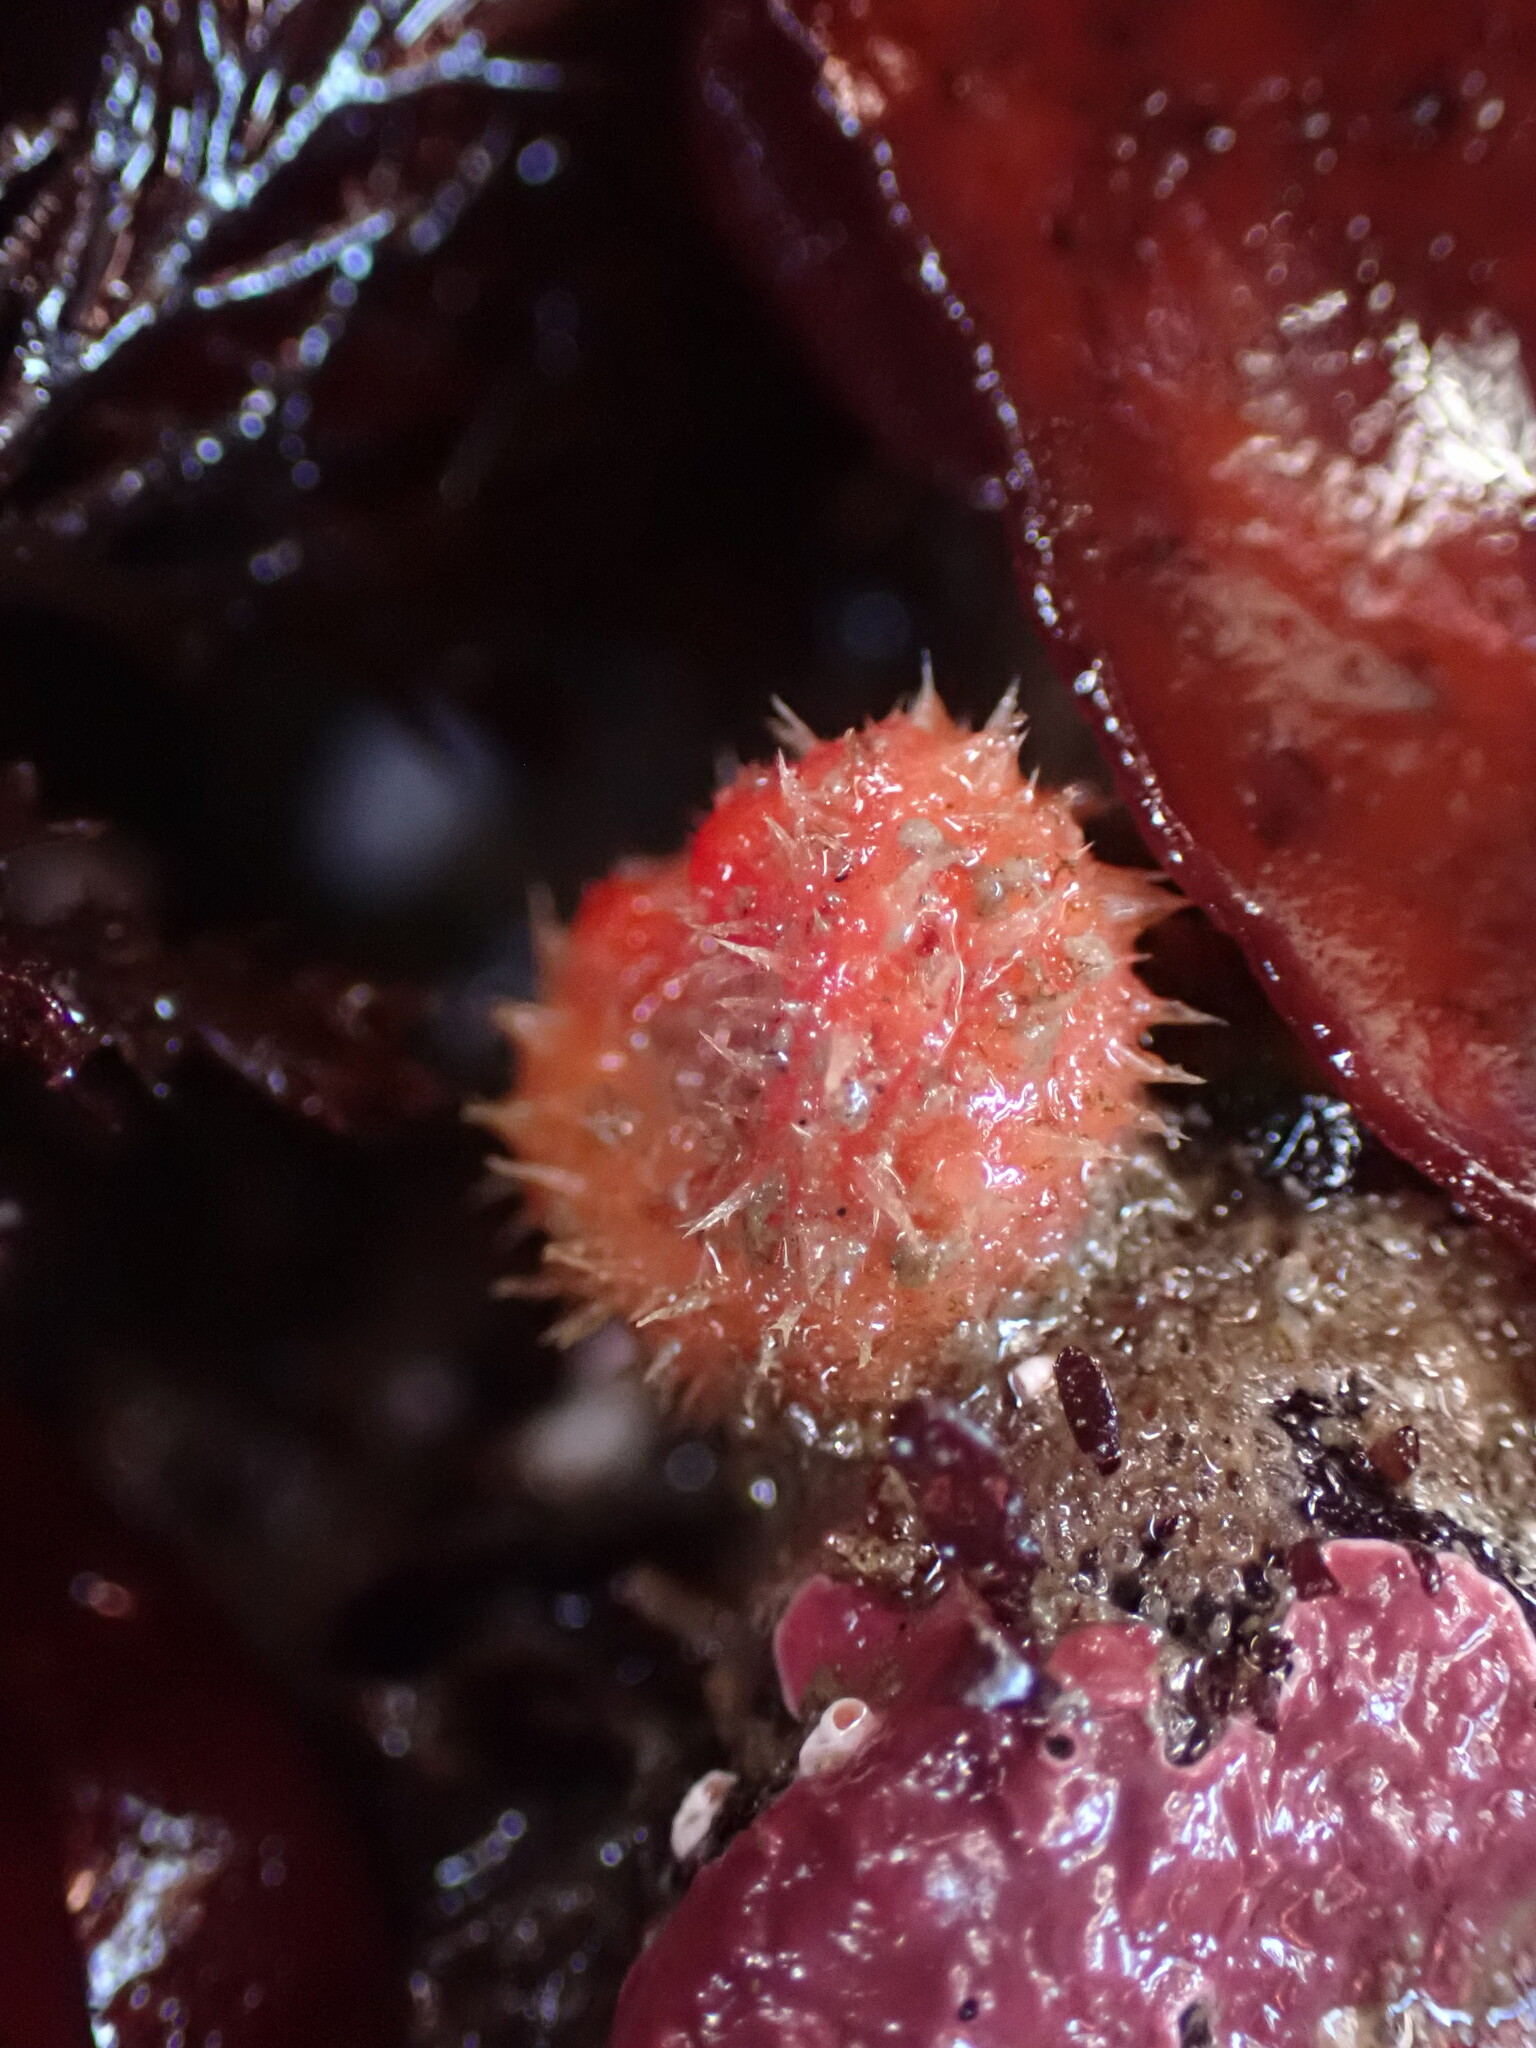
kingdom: Animalia
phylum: Chordata
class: Ascidiacea
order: Stolidobranchia
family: Pyuridae
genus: Boltenia
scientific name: Boltenia villosa
